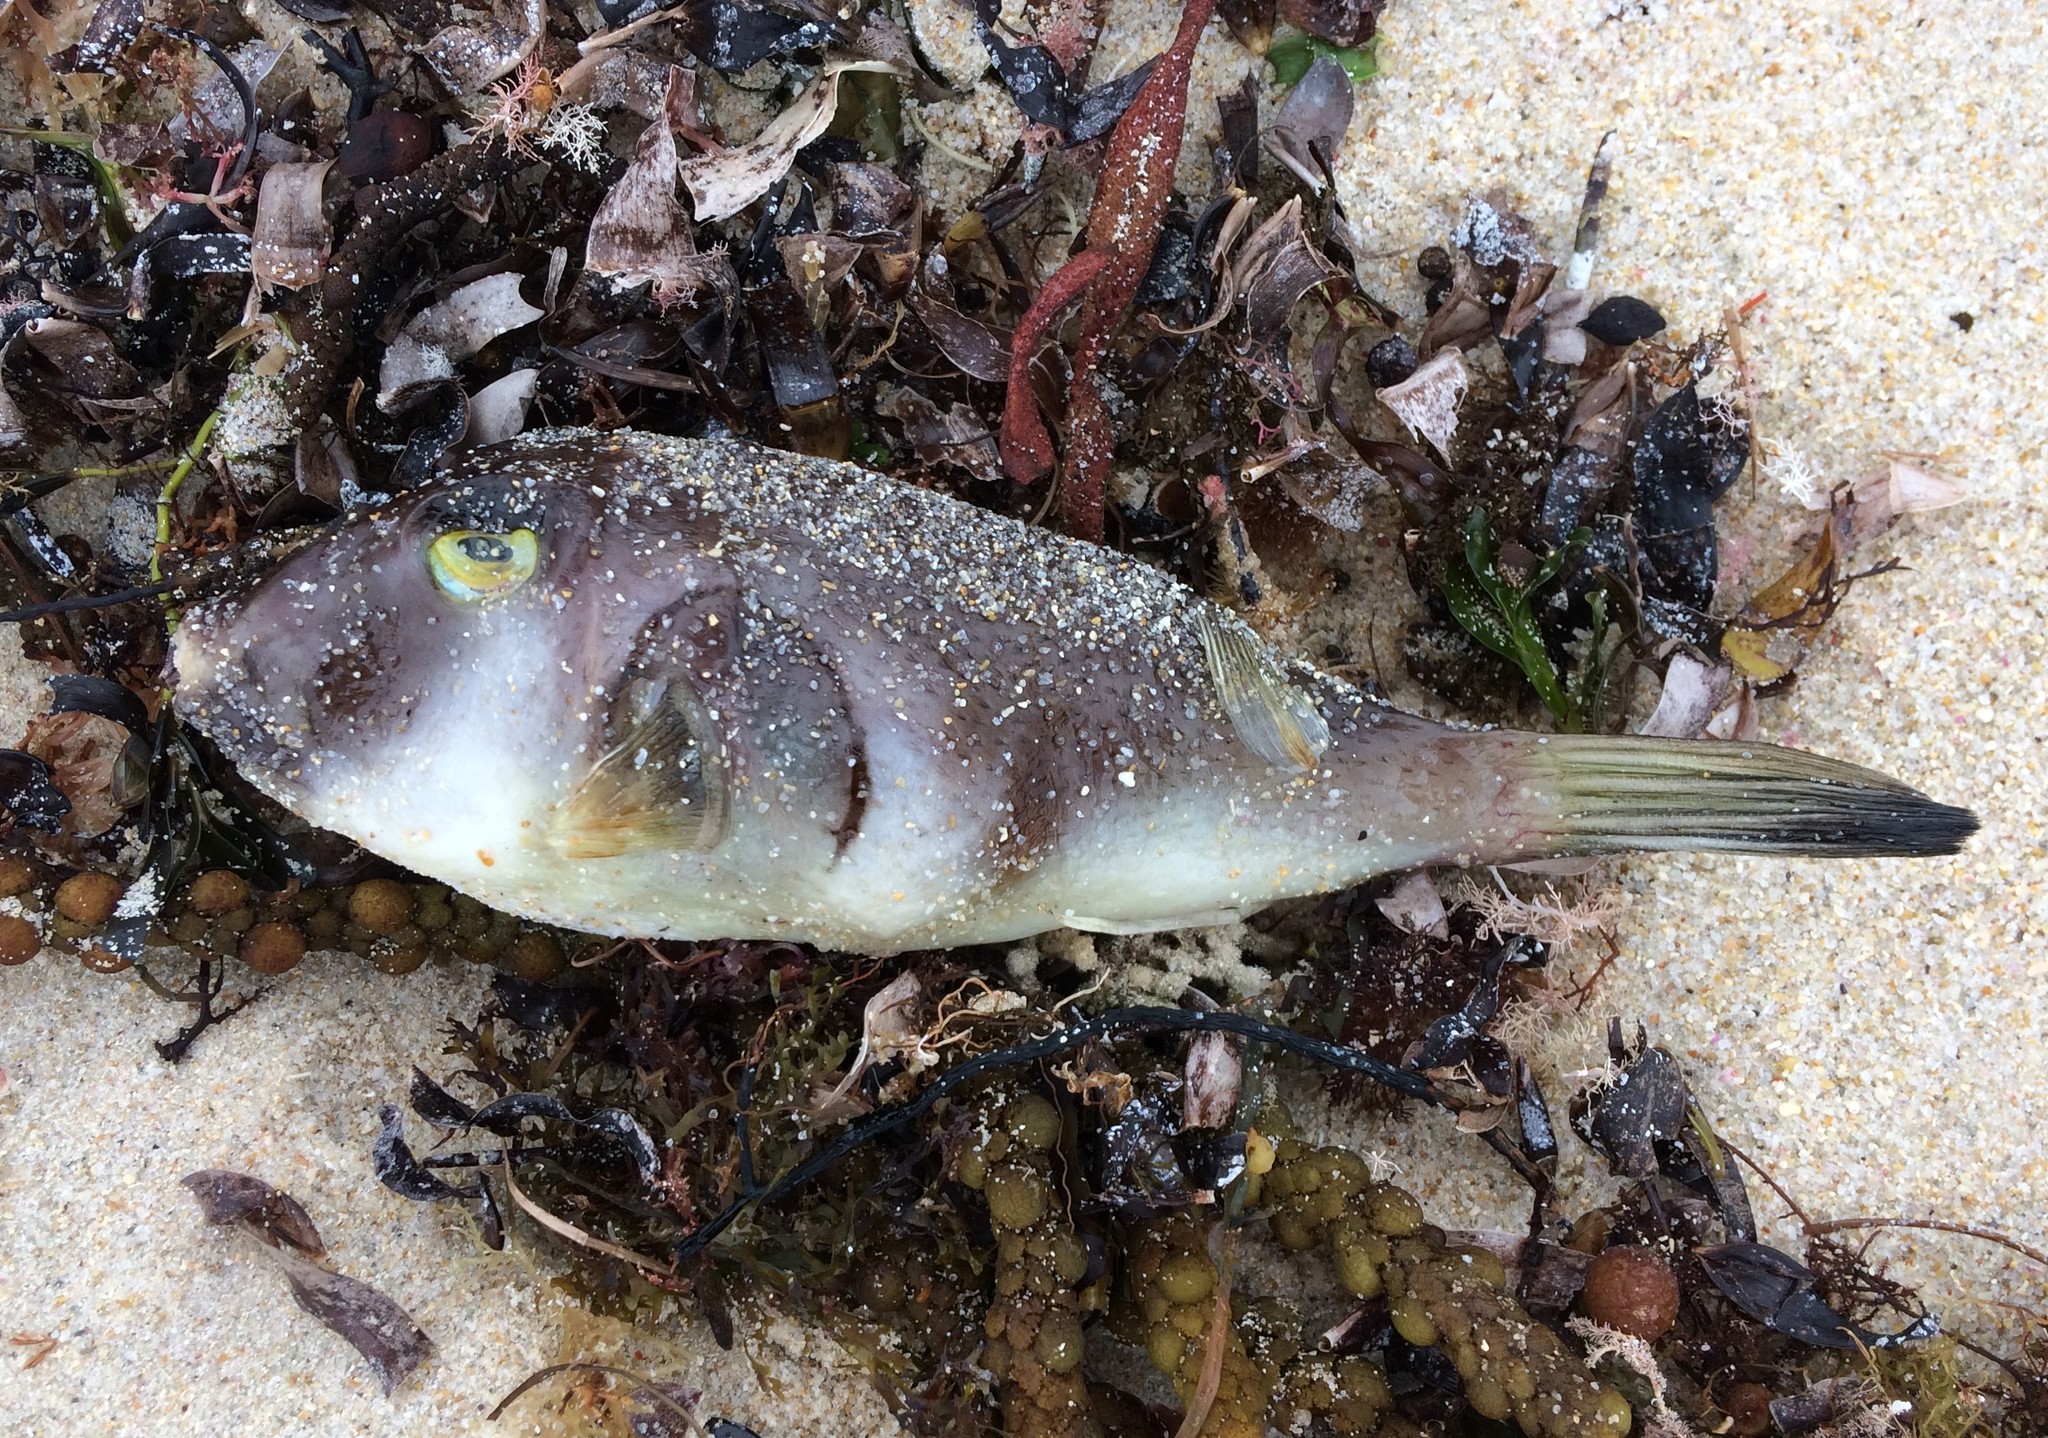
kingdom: Animalia
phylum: Chordata
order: Tetraodontiformes
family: Tetraodontidae
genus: Omegophora
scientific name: Omegophora armilla
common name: Ringed pufferfish
